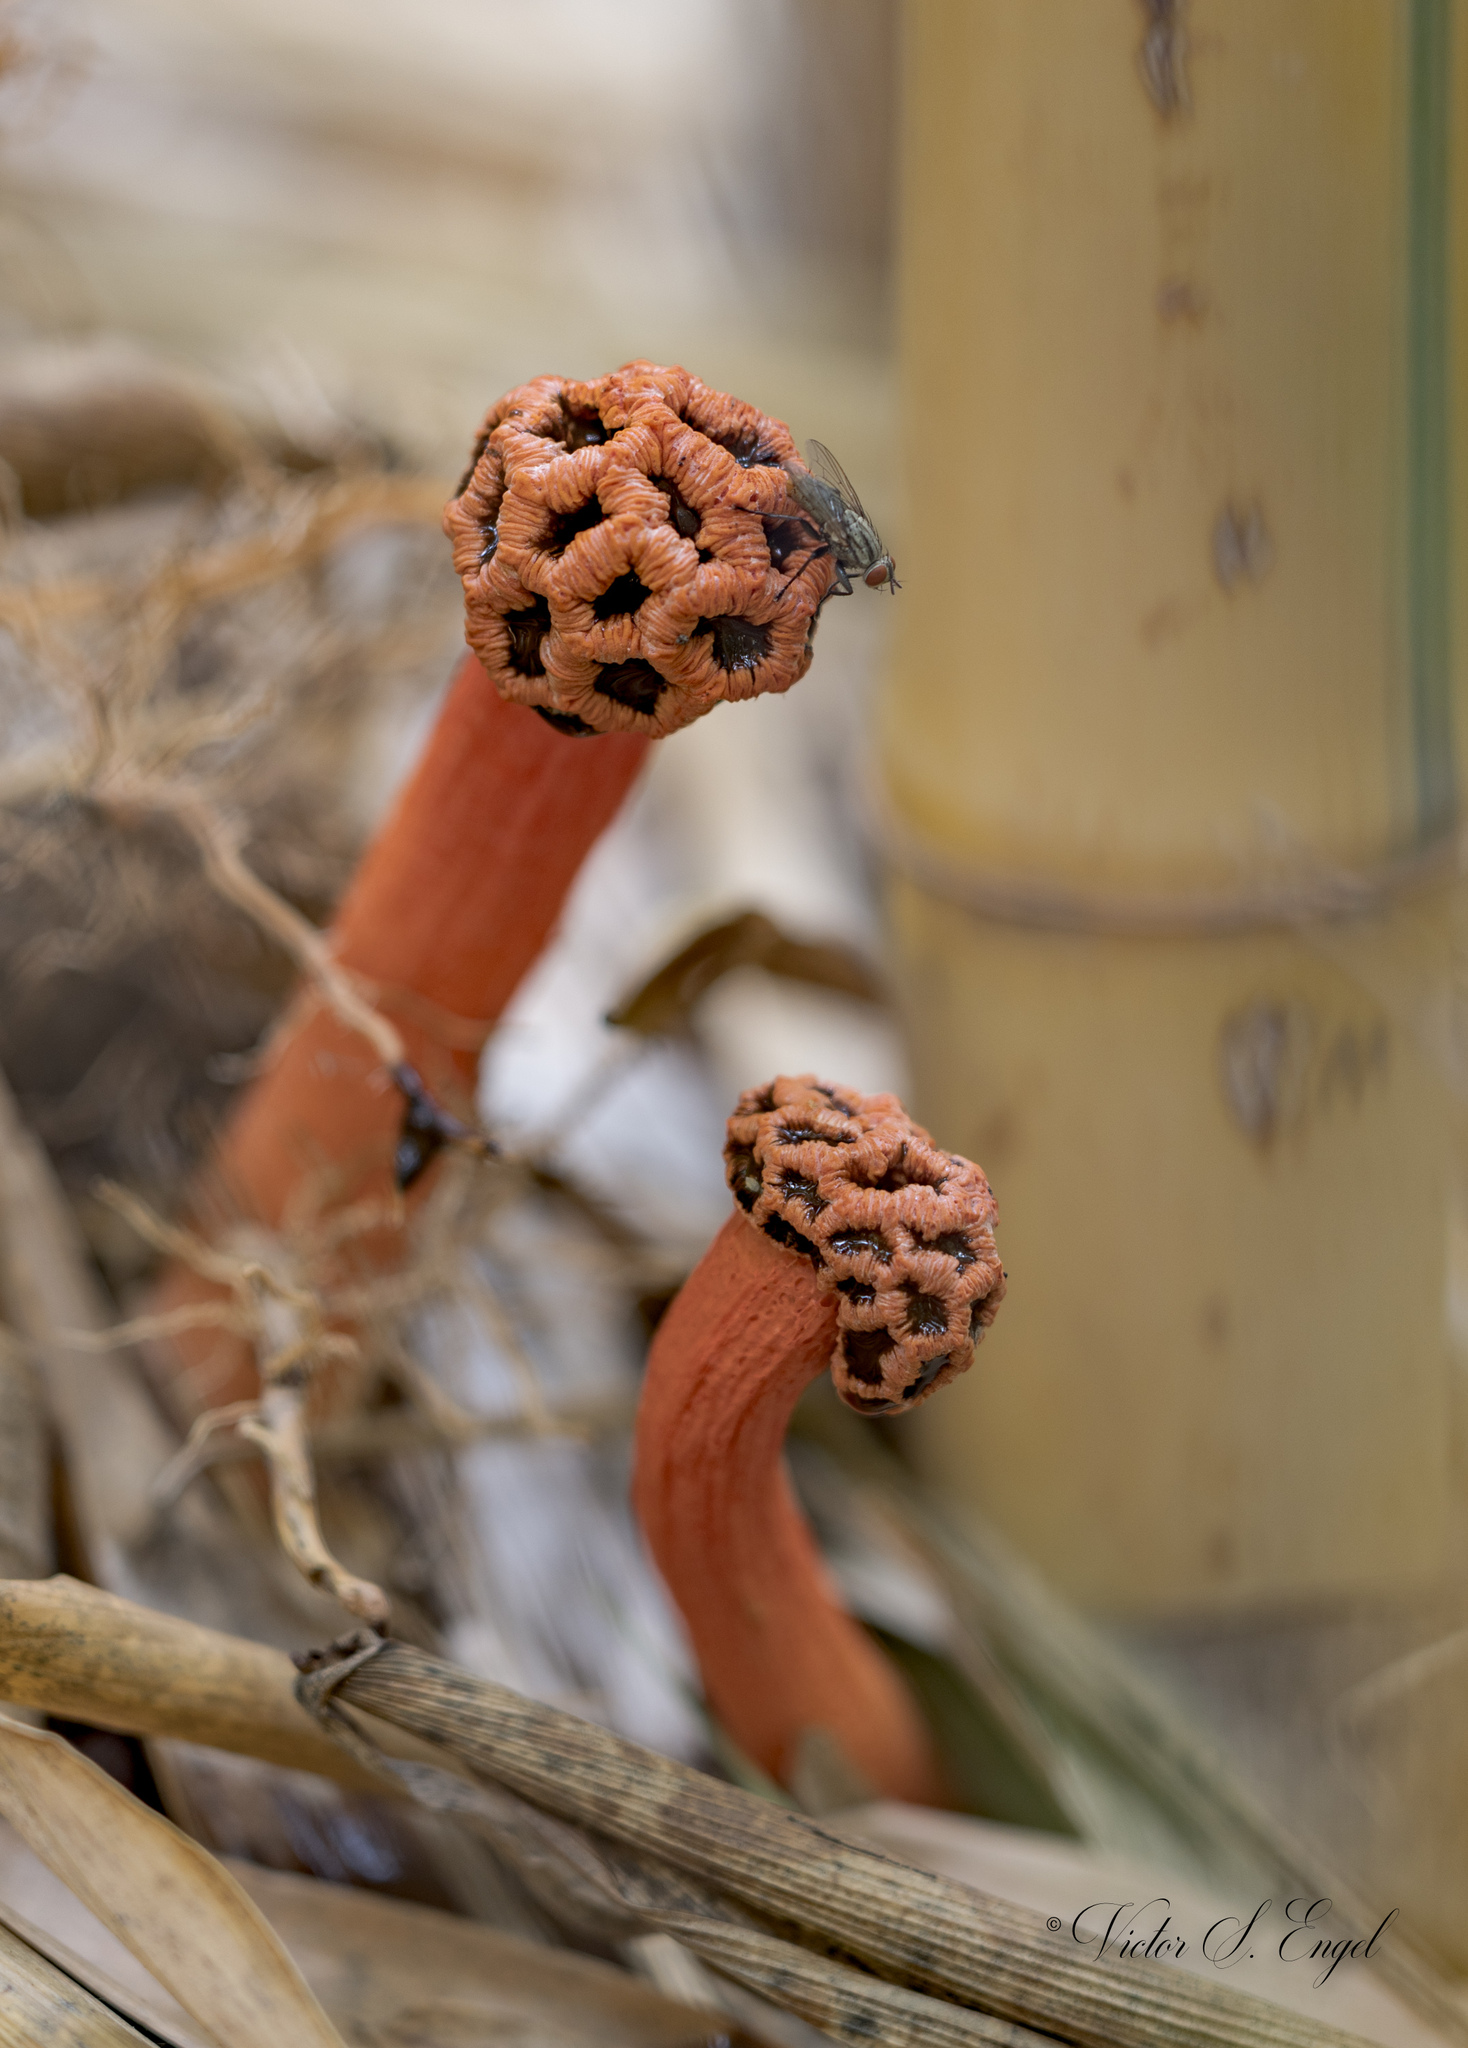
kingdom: Fungi
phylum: Basidiomycota
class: Agaricomycetes
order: Phallales
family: Phallaceae
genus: Lysurus
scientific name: Lysurus periphragmoides
